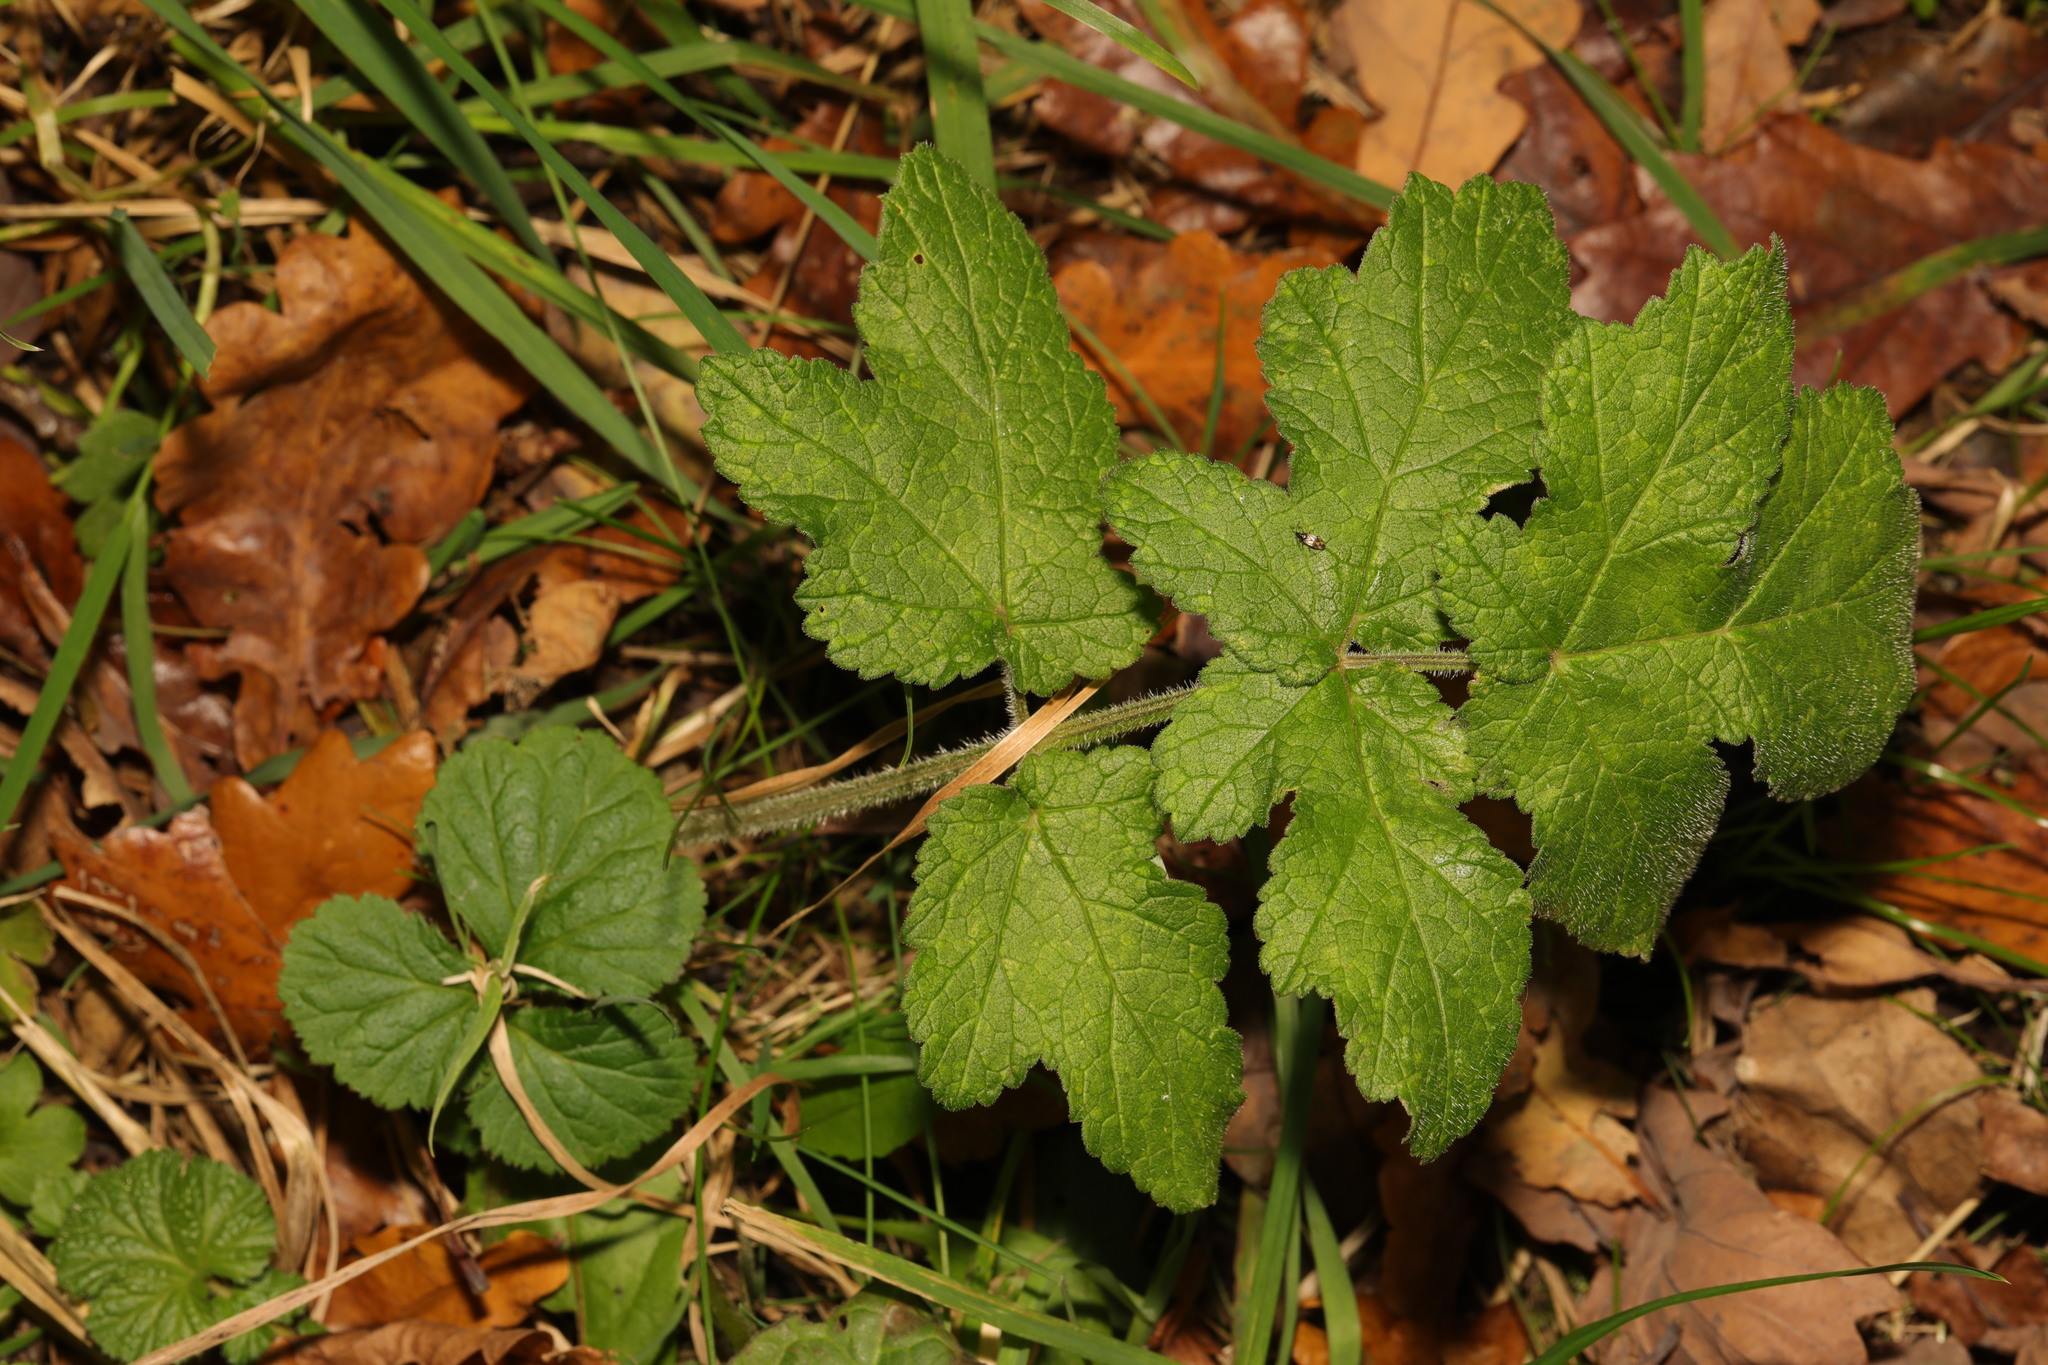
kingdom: Plantae
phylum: Tracheophyta
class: Magnoliopsida
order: Apiales
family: Apiaceae
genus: Heracleum
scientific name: Heracleum sphondylium
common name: Hogweed
